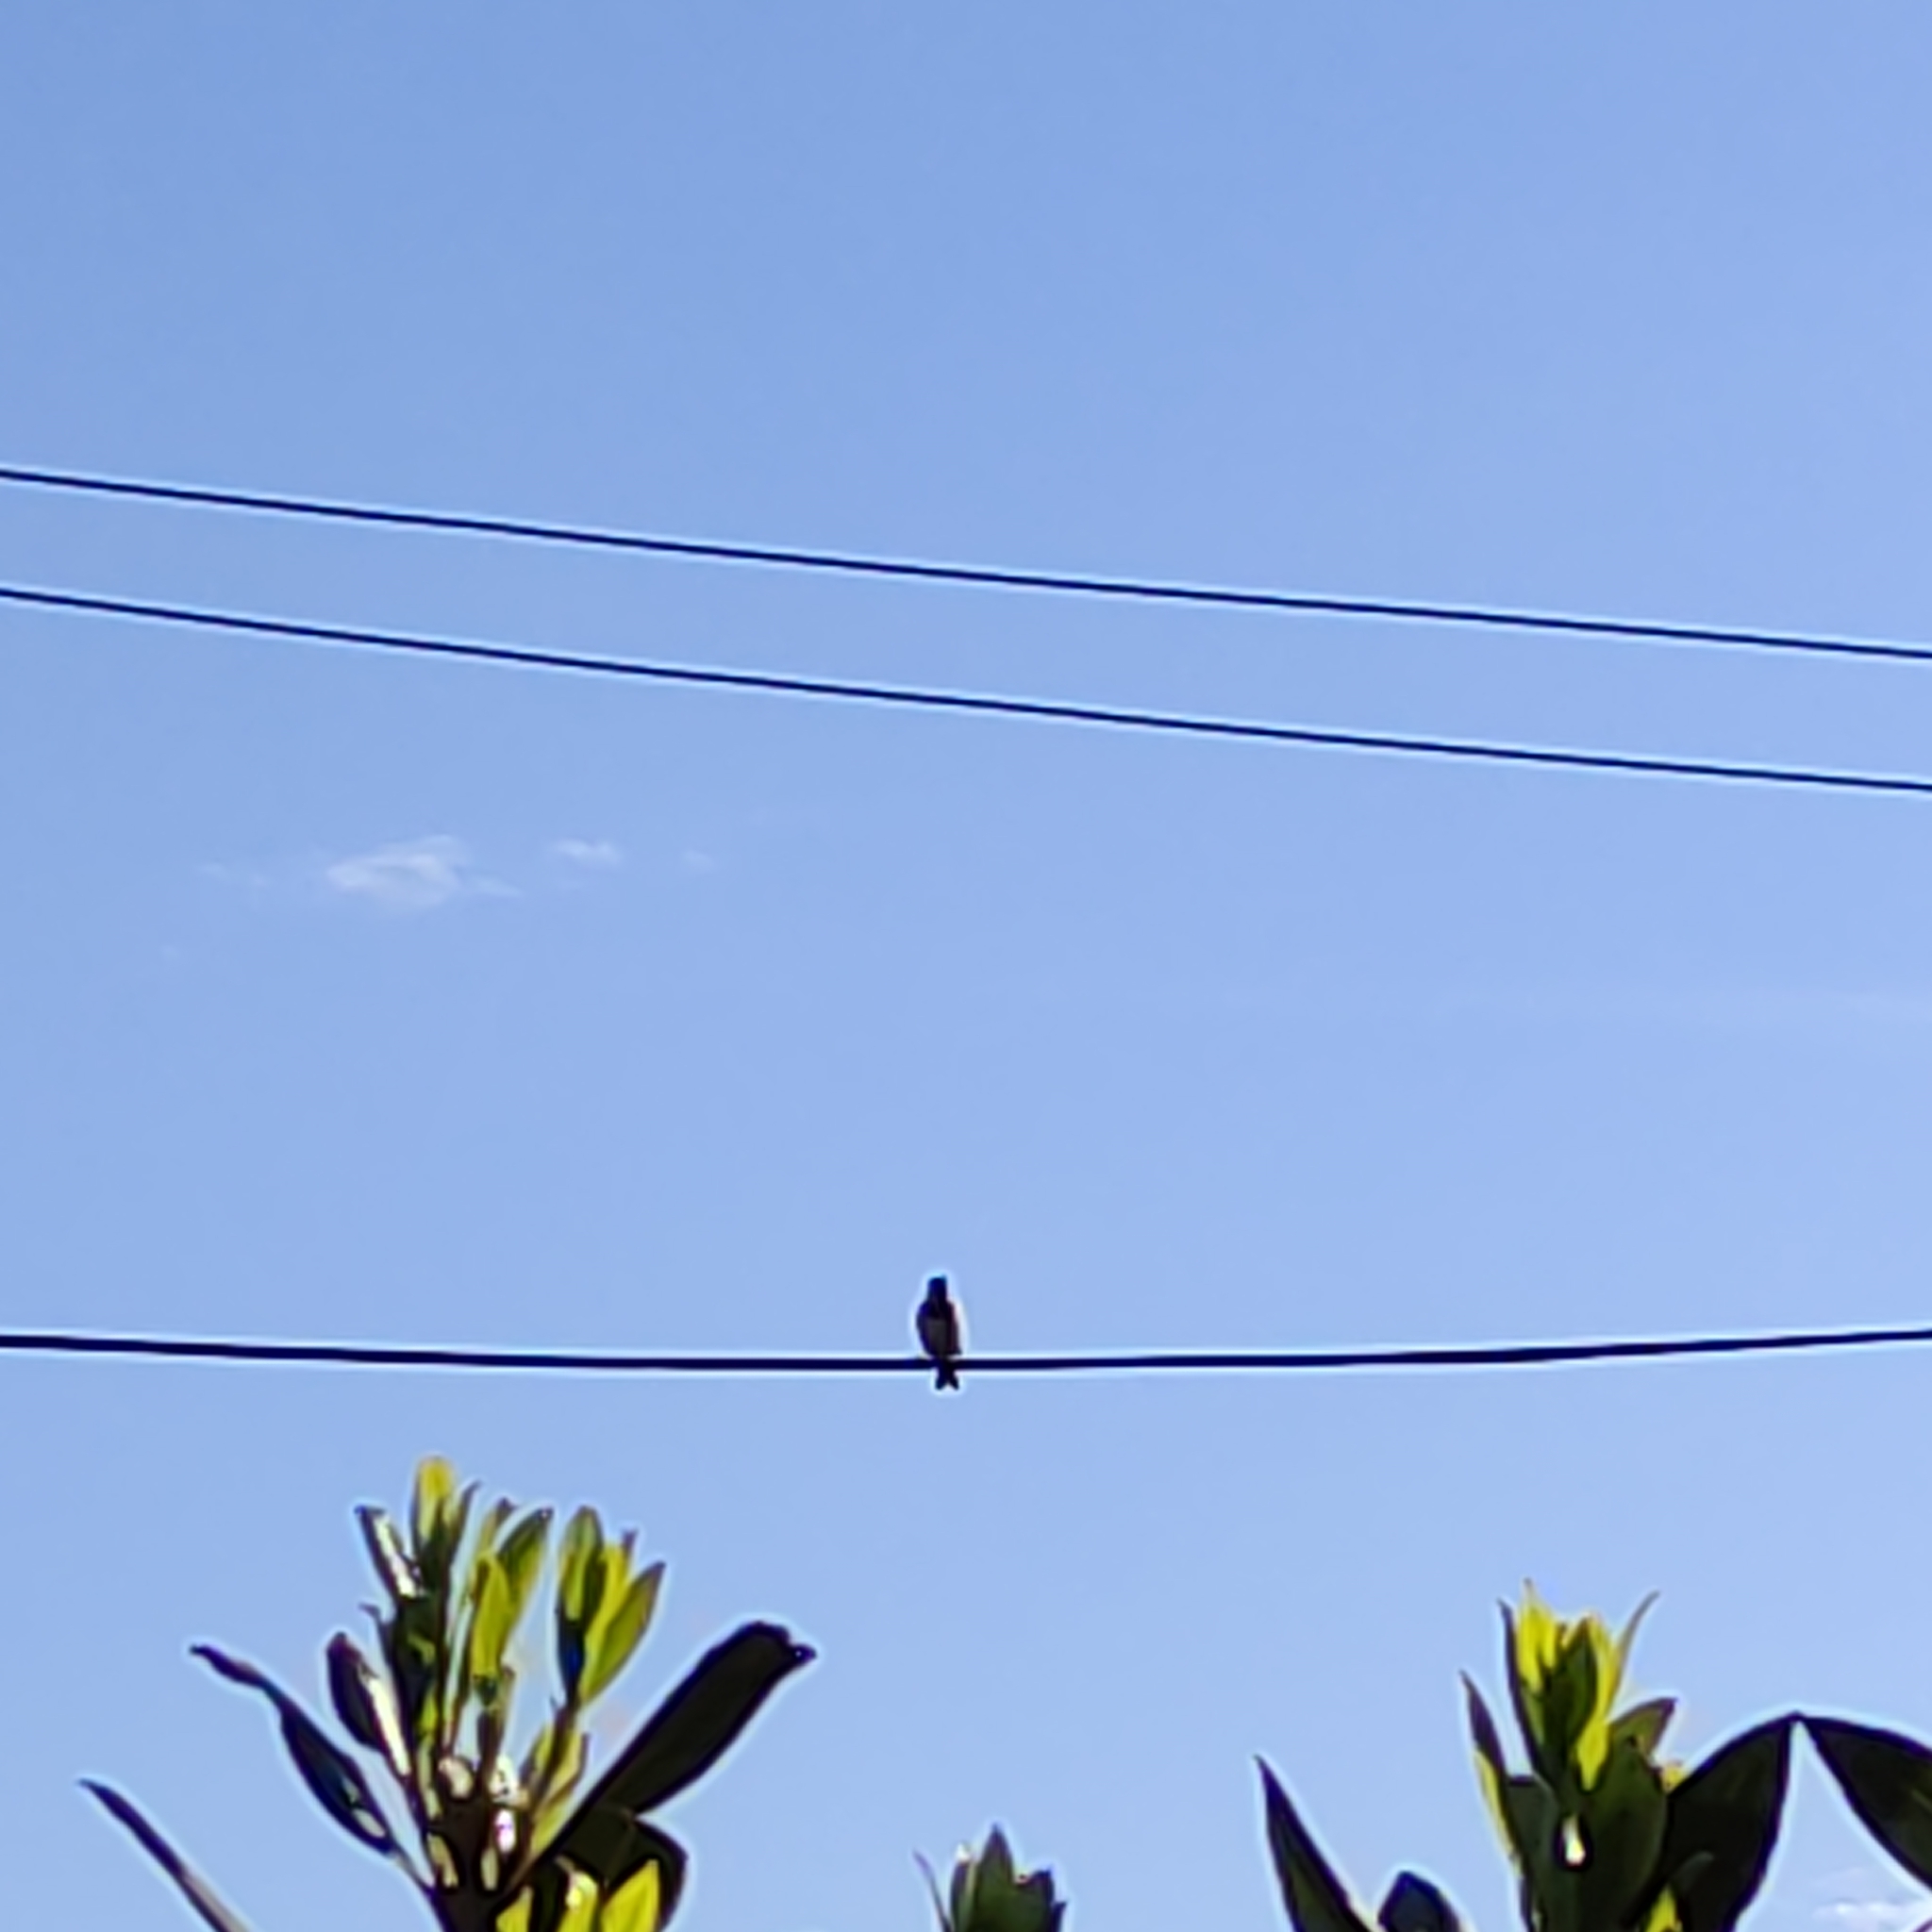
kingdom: Animalia
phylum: Chordata
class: Aves
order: Passeriformes
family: Passeridae
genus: Passer
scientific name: Passer domesticus
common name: House sparrow
